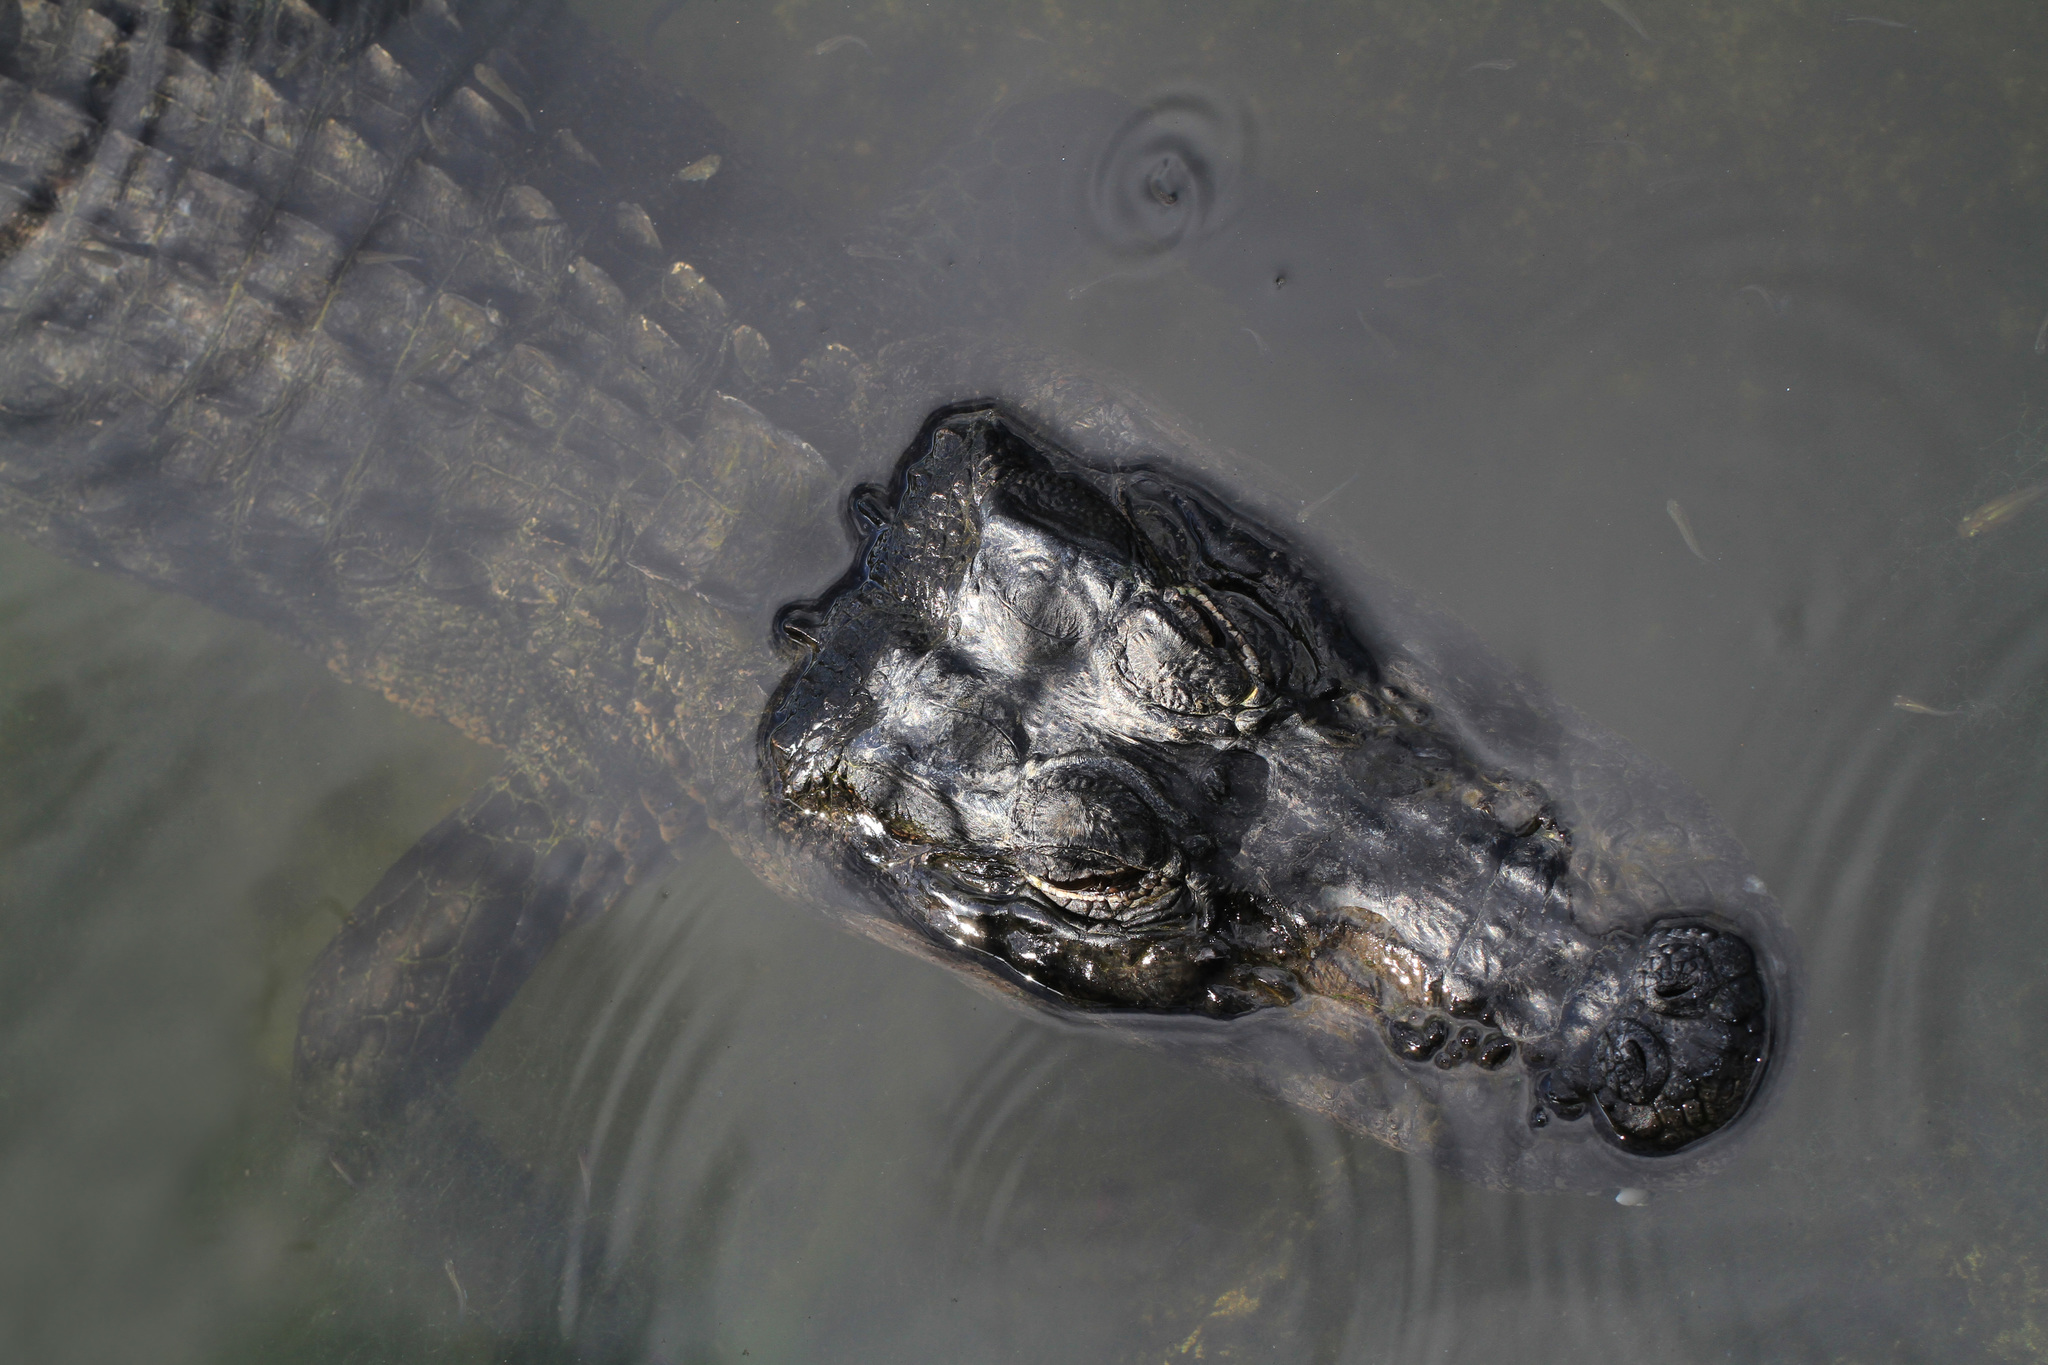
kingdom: Animalia
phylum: Chordata
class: Crocodylia
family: Alligatoridae
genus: Alligator
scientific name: Alligator mississippiensis
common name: American alligator
